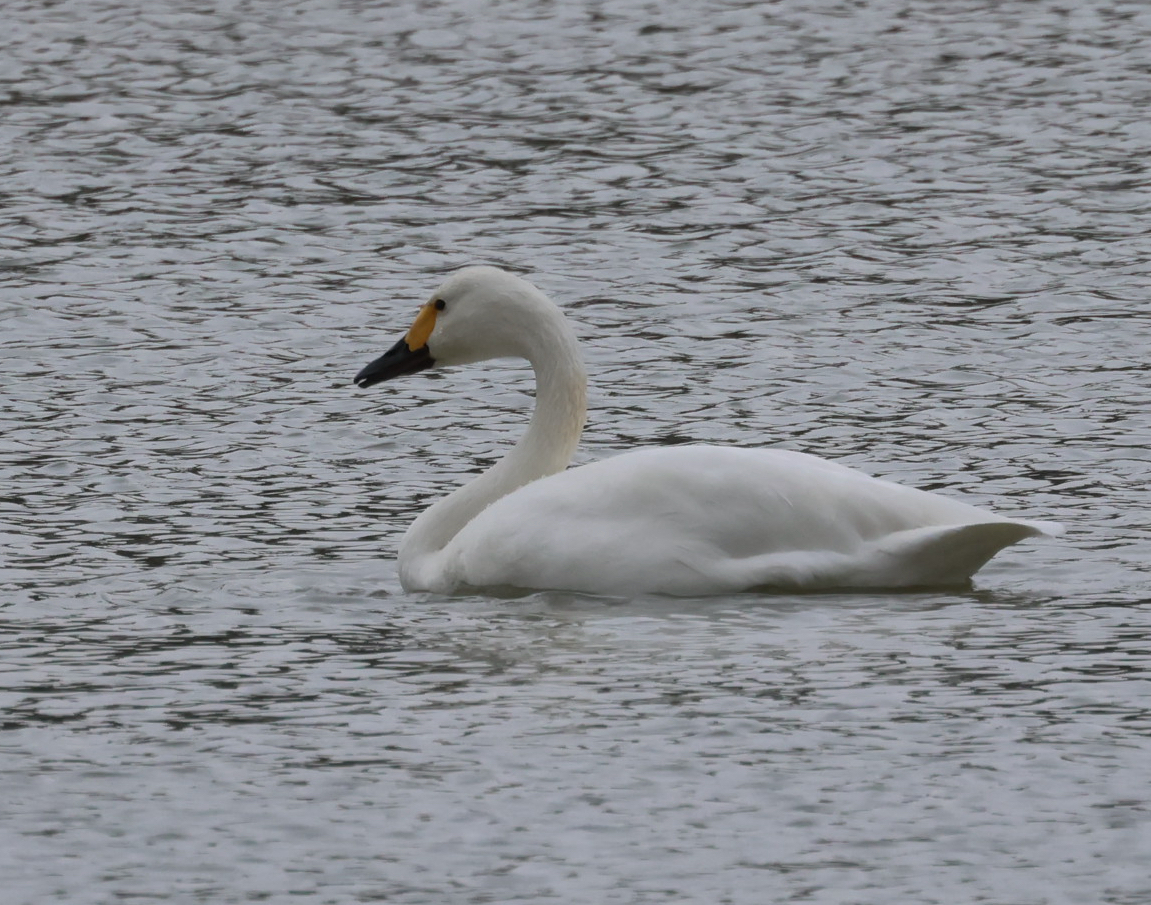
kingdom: Animalia
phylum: Chordata
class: Aves
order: Anseriformes
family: Anatidae
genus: Cygnus
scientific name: Cygnus columbianus
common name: Tundra swan
